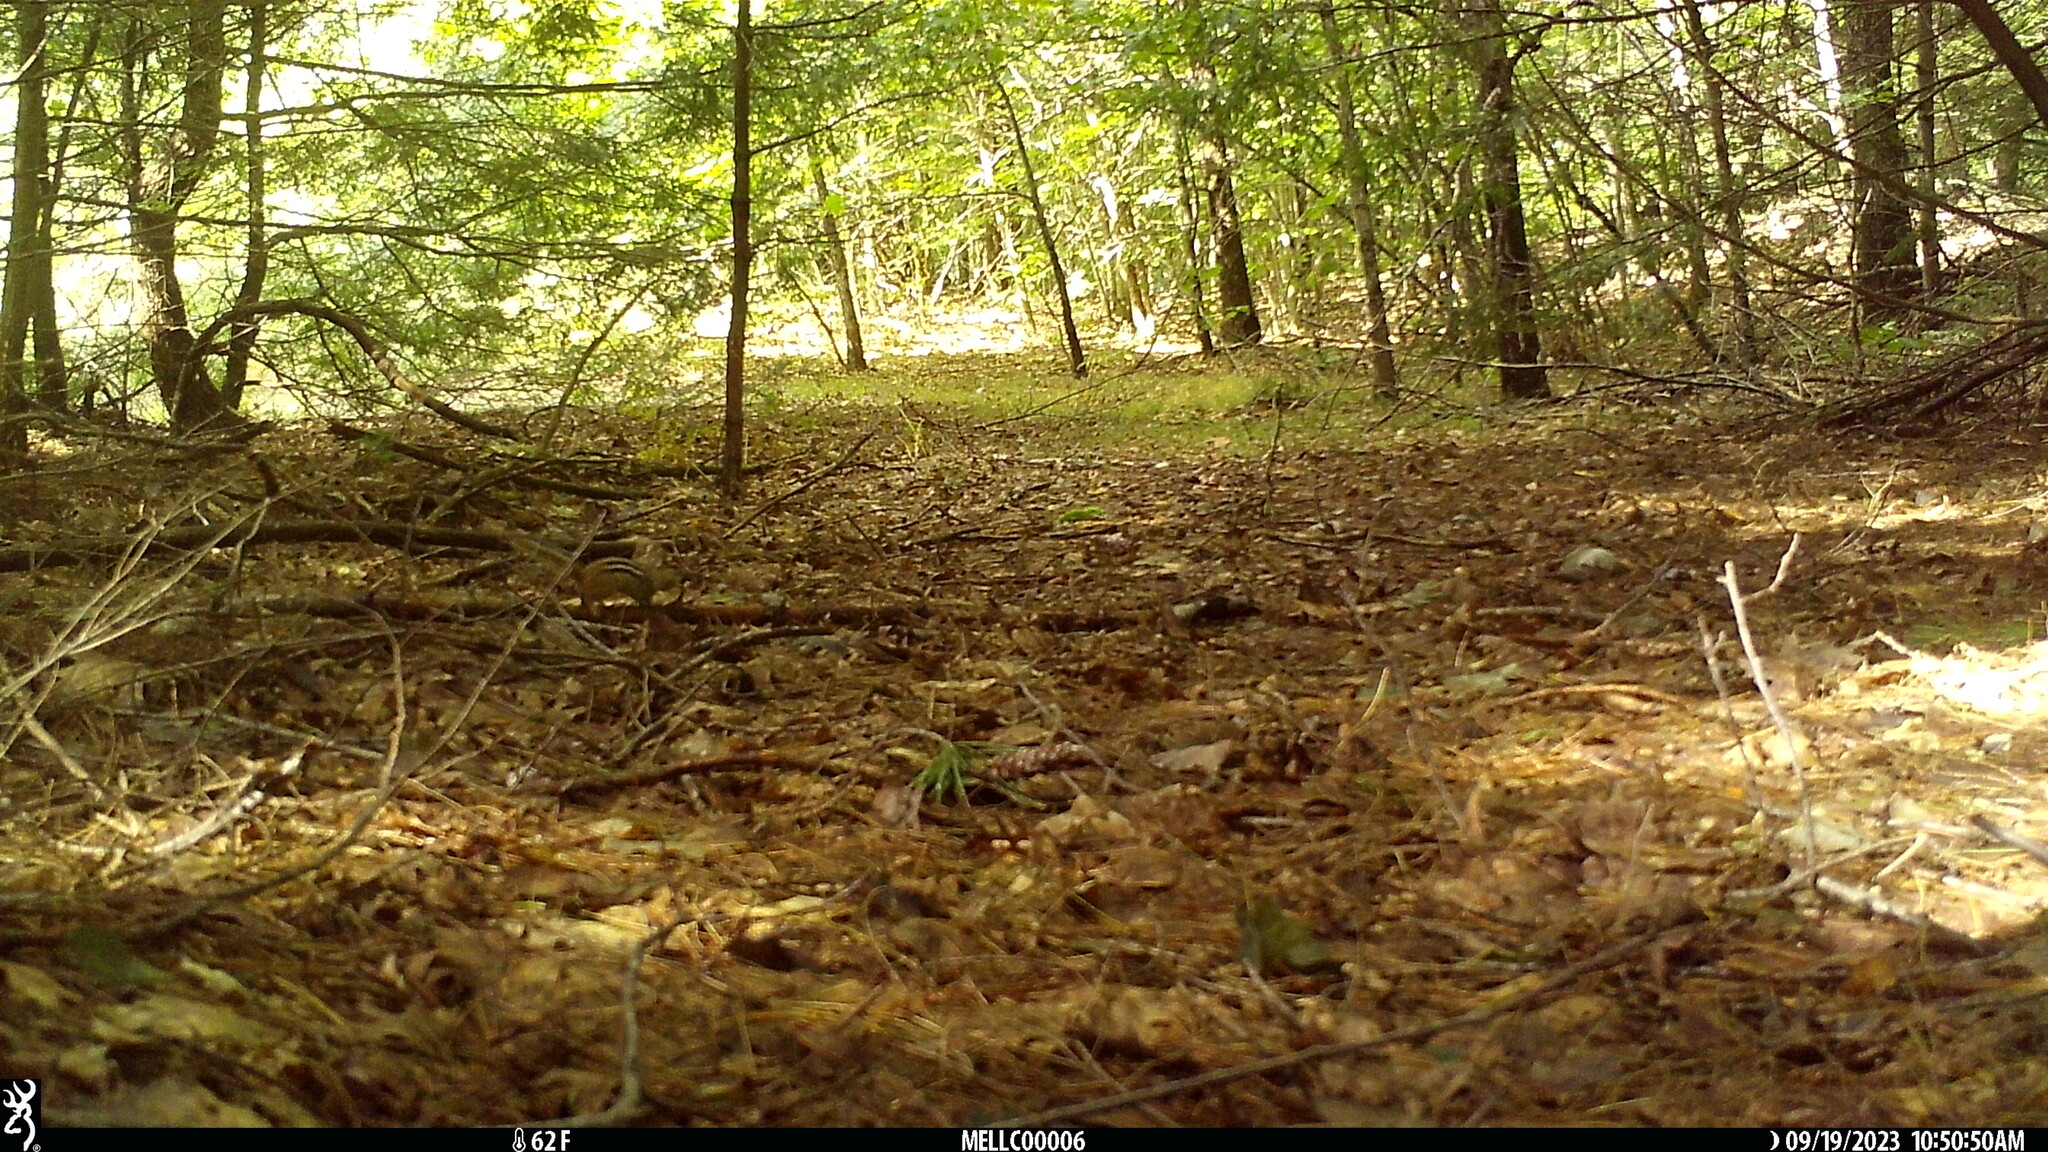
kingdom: Animalia
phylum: Chordata
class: Mammalia
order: Rodentia
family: Sciuridae
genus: Tamias
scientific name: Tamias striatus
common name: Eastern chipmunk
